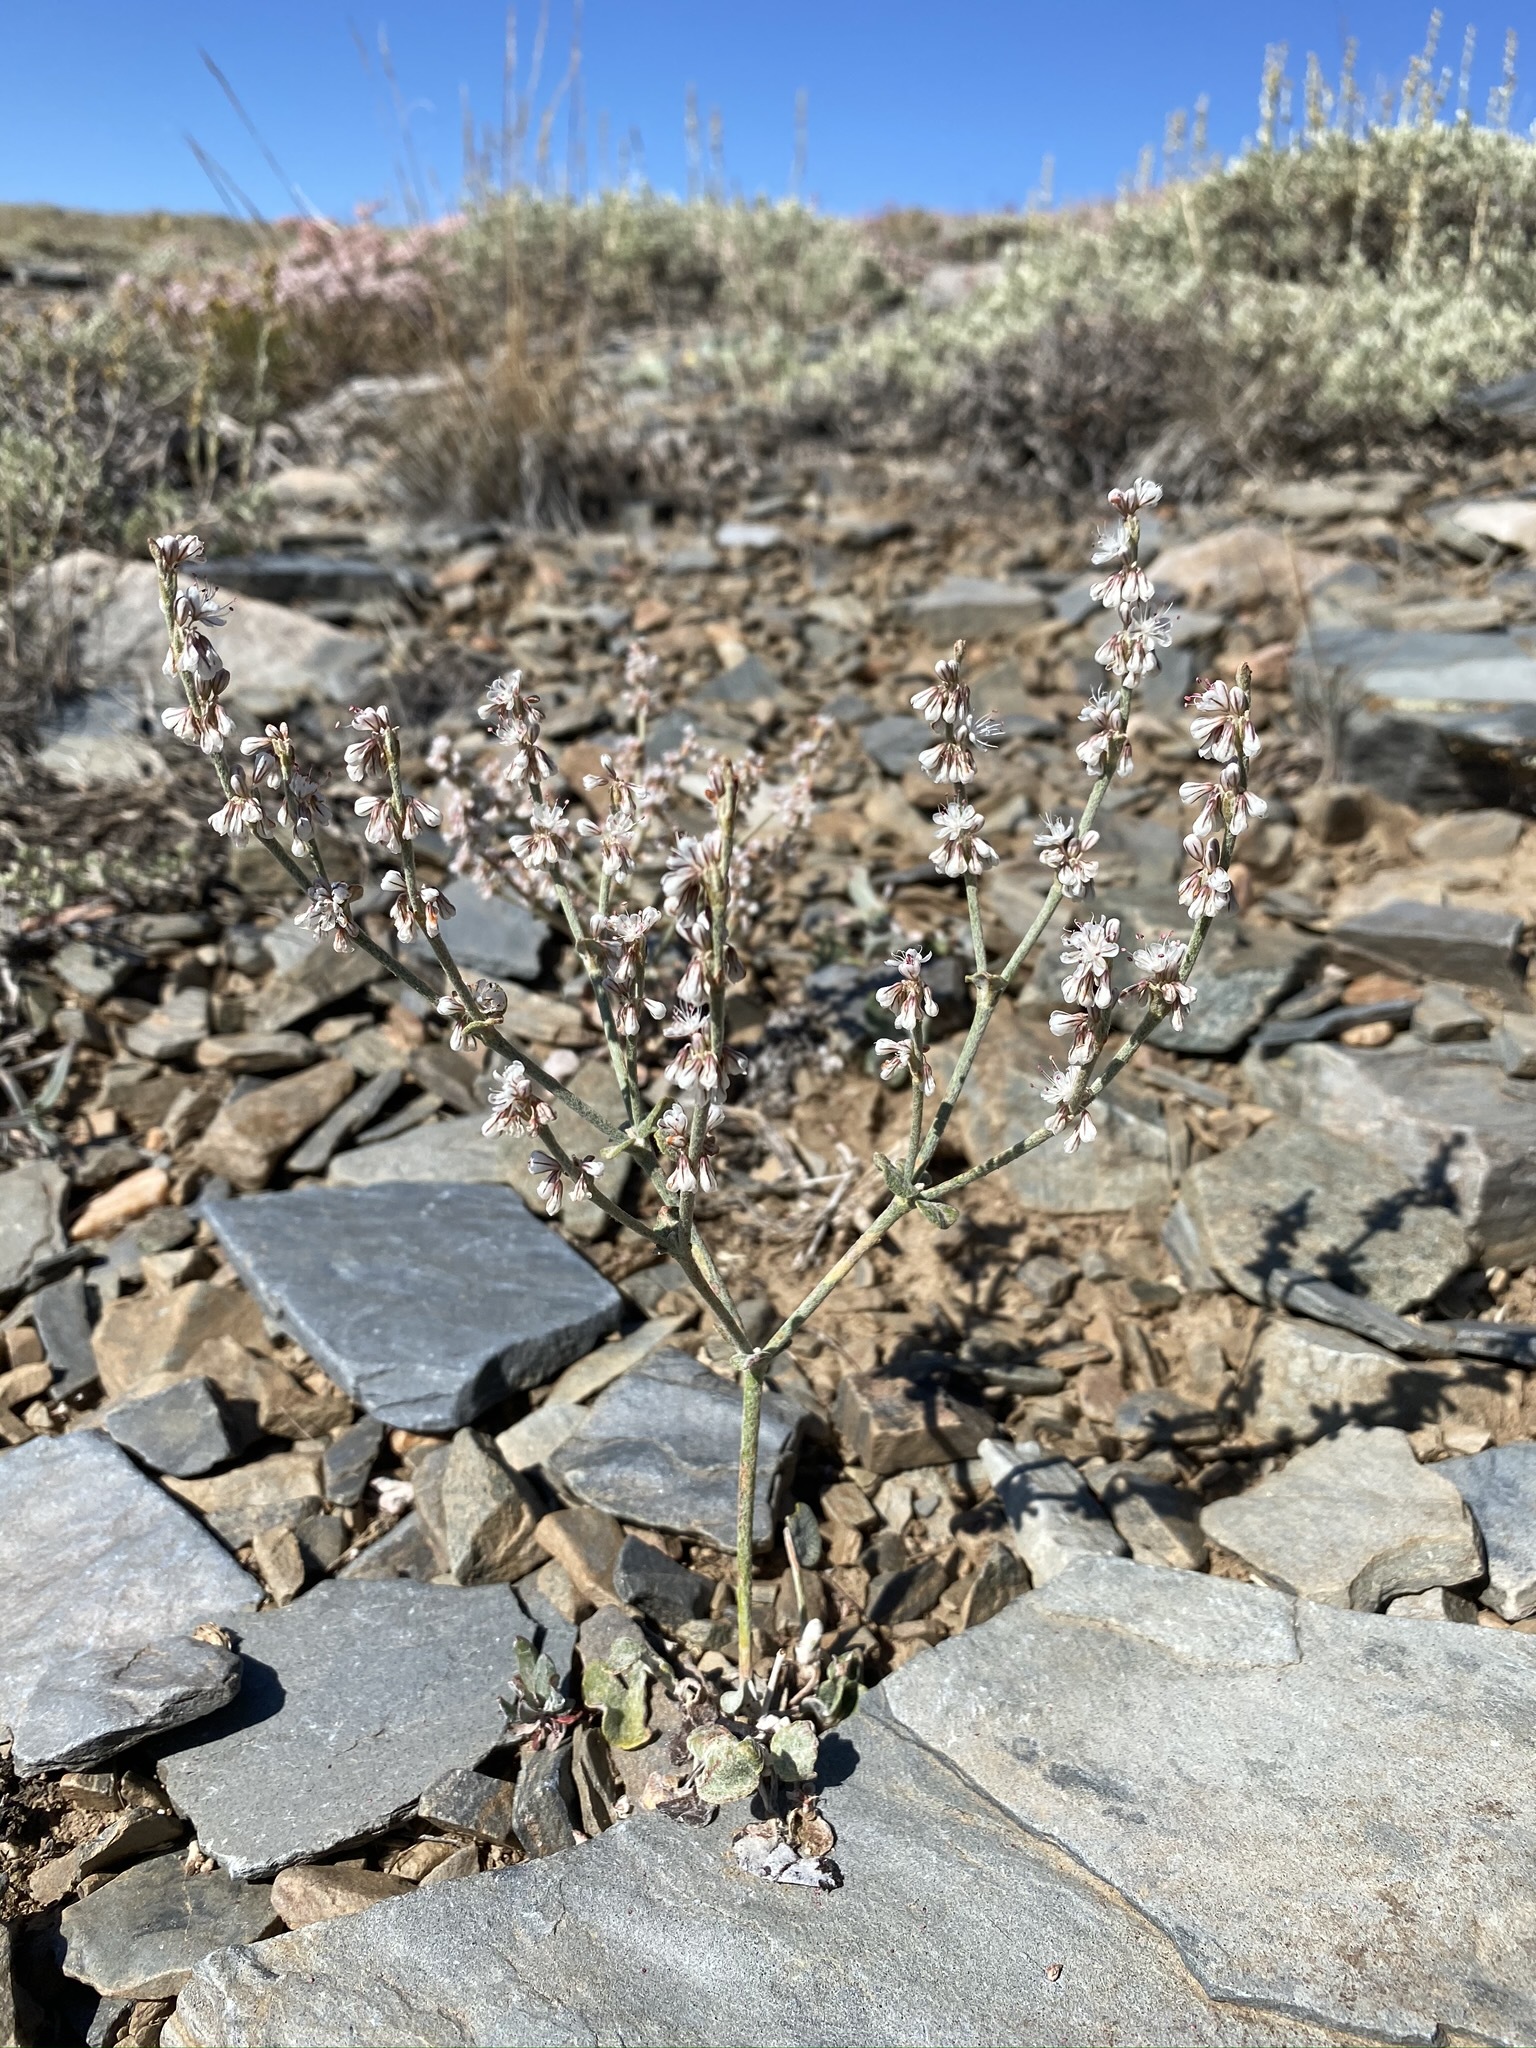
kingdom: Plantae
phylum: Tracheophyta
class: Magnoliopsida
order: Caryophyllales
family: Polygonaceae
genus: Eriogonum
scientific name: Eriogonum panamintense
